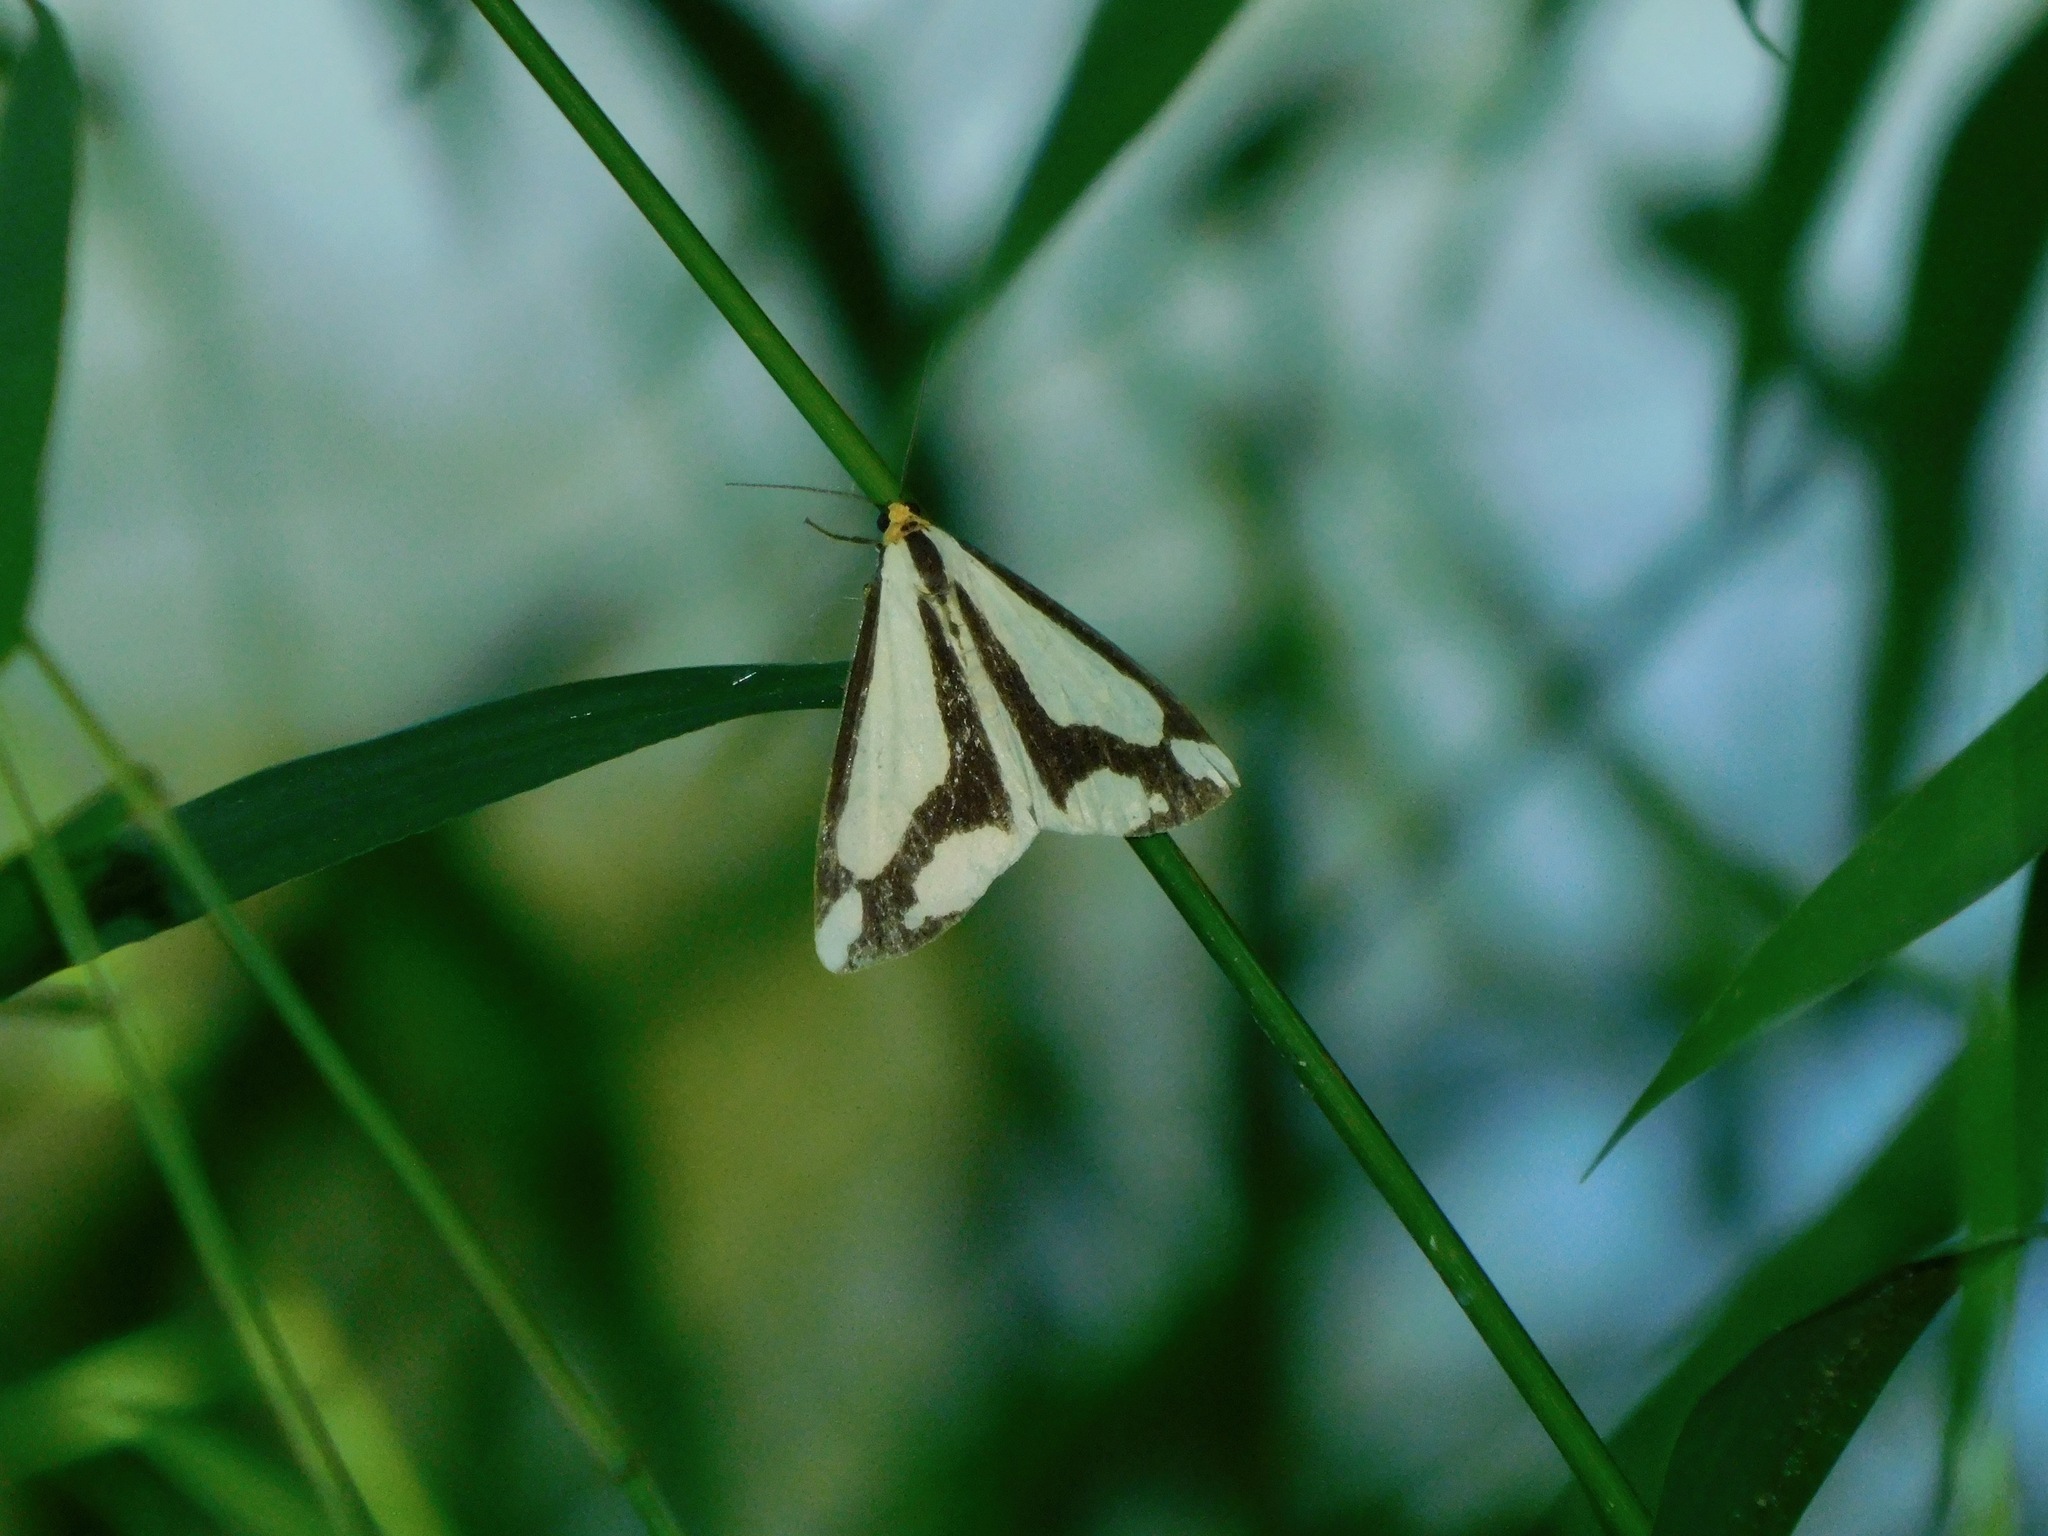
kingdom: Animalia
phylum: Arthropoda
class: Insecta
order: Lepidoptera
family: Erebidae
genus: Haploa
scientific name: Haploa lecontei
